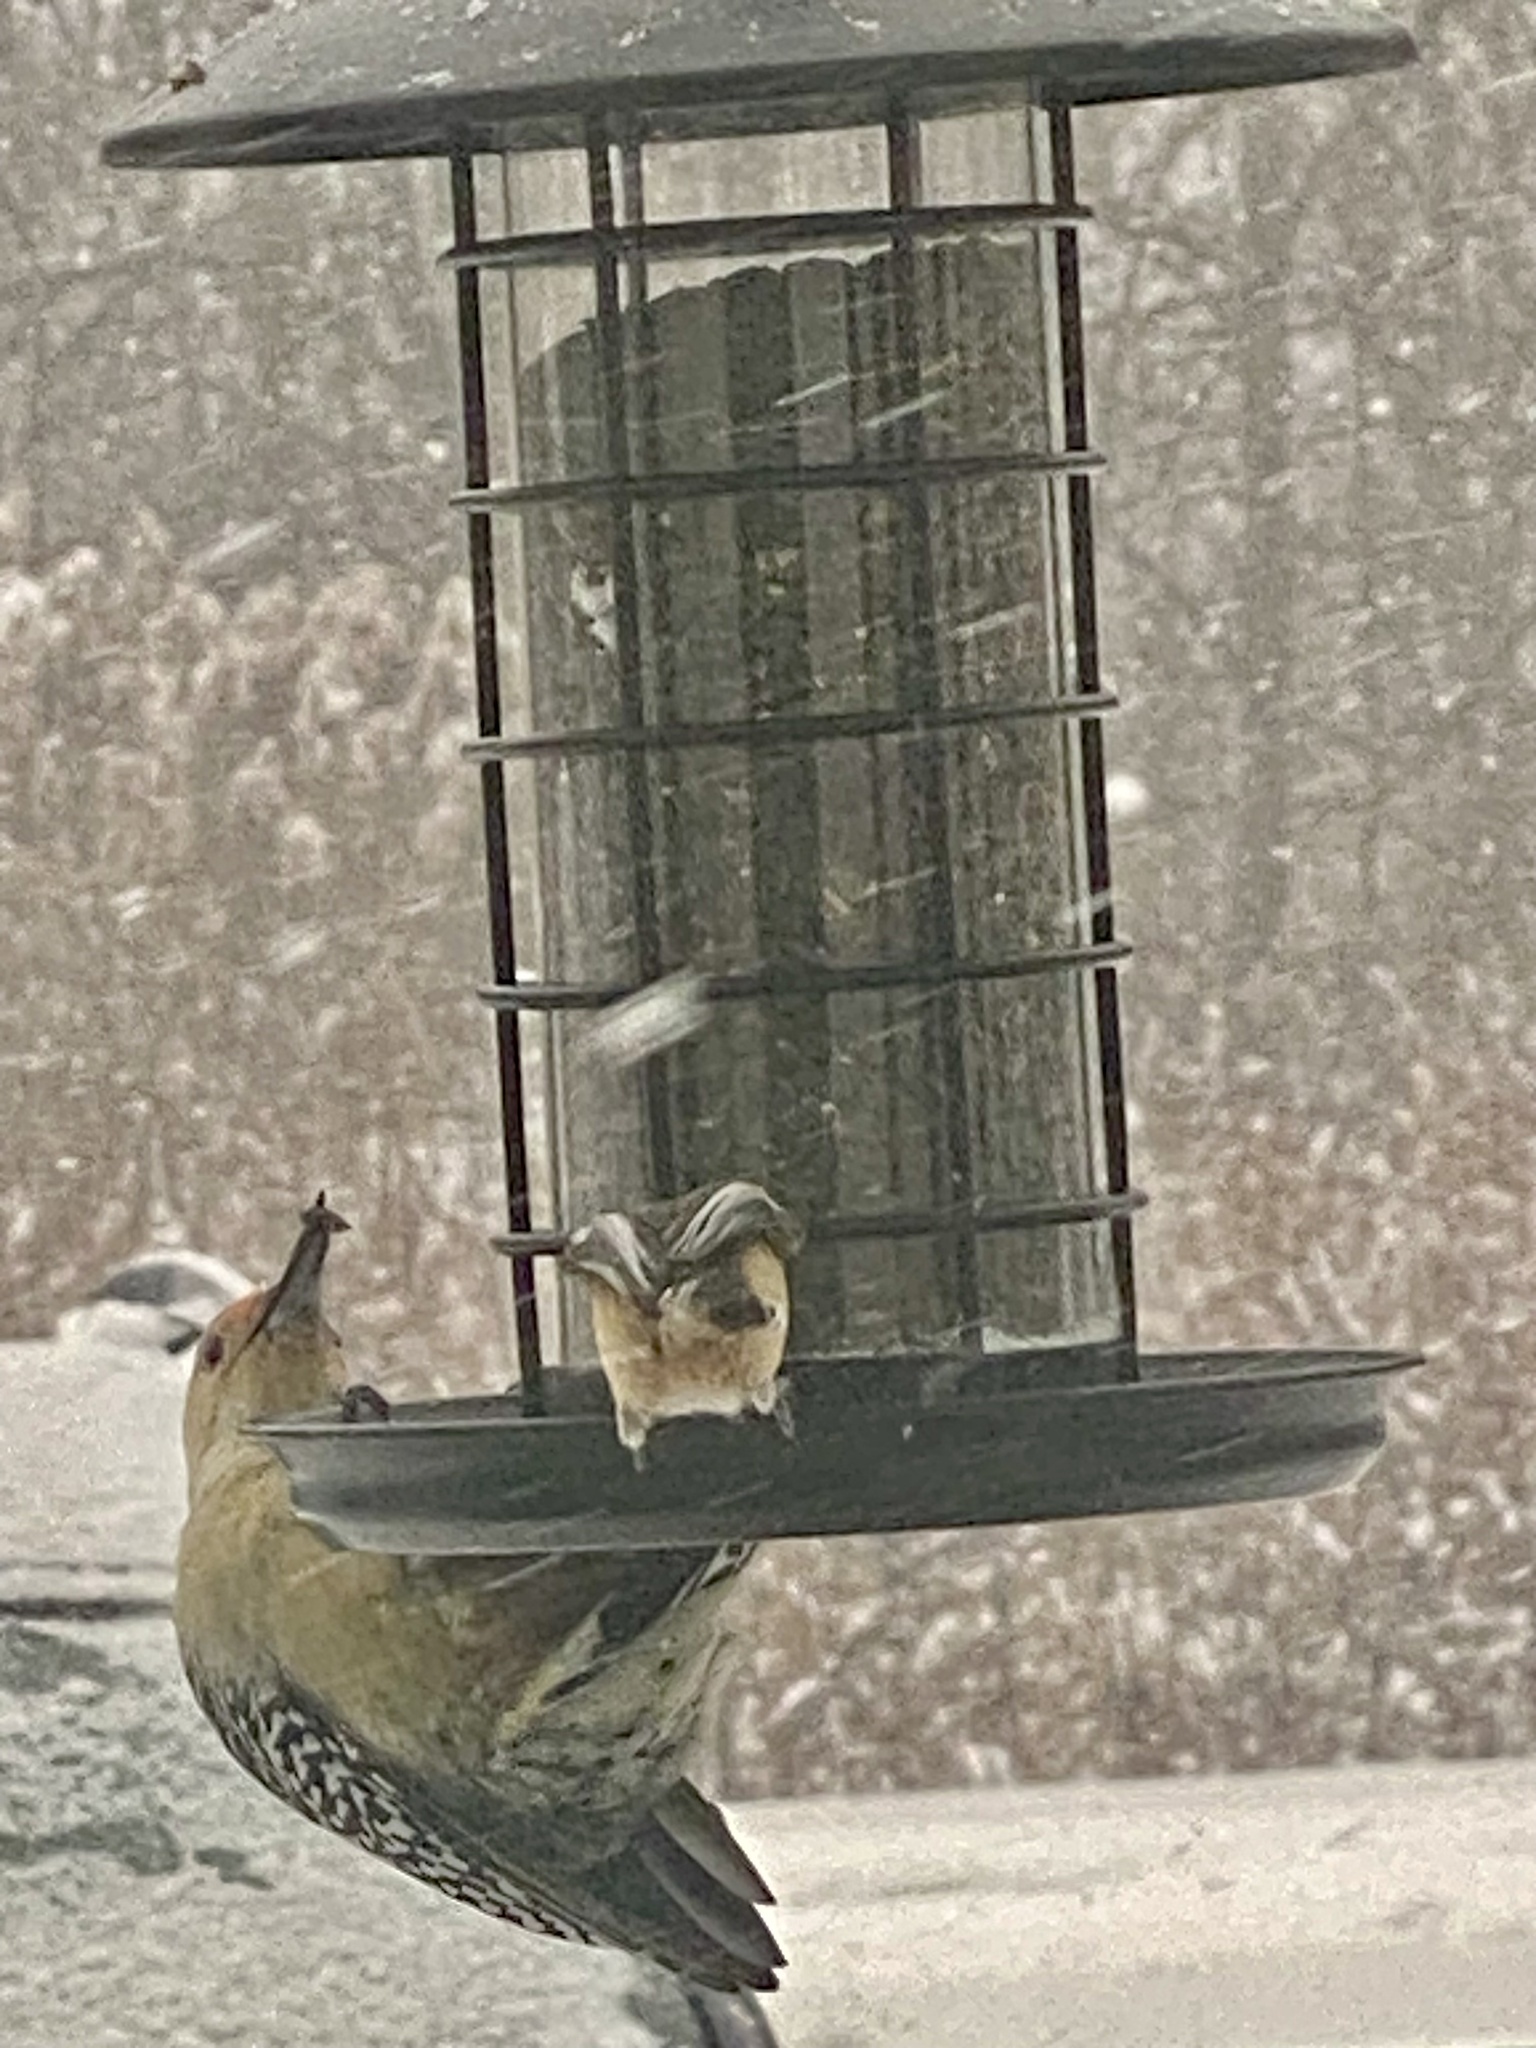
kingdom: Animalia
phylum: Chordata
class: Aves
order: Piciformes
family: Picidae
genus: Melanerpes
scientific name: Melanerpes carolinus
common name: Red-bellied woodpecker
